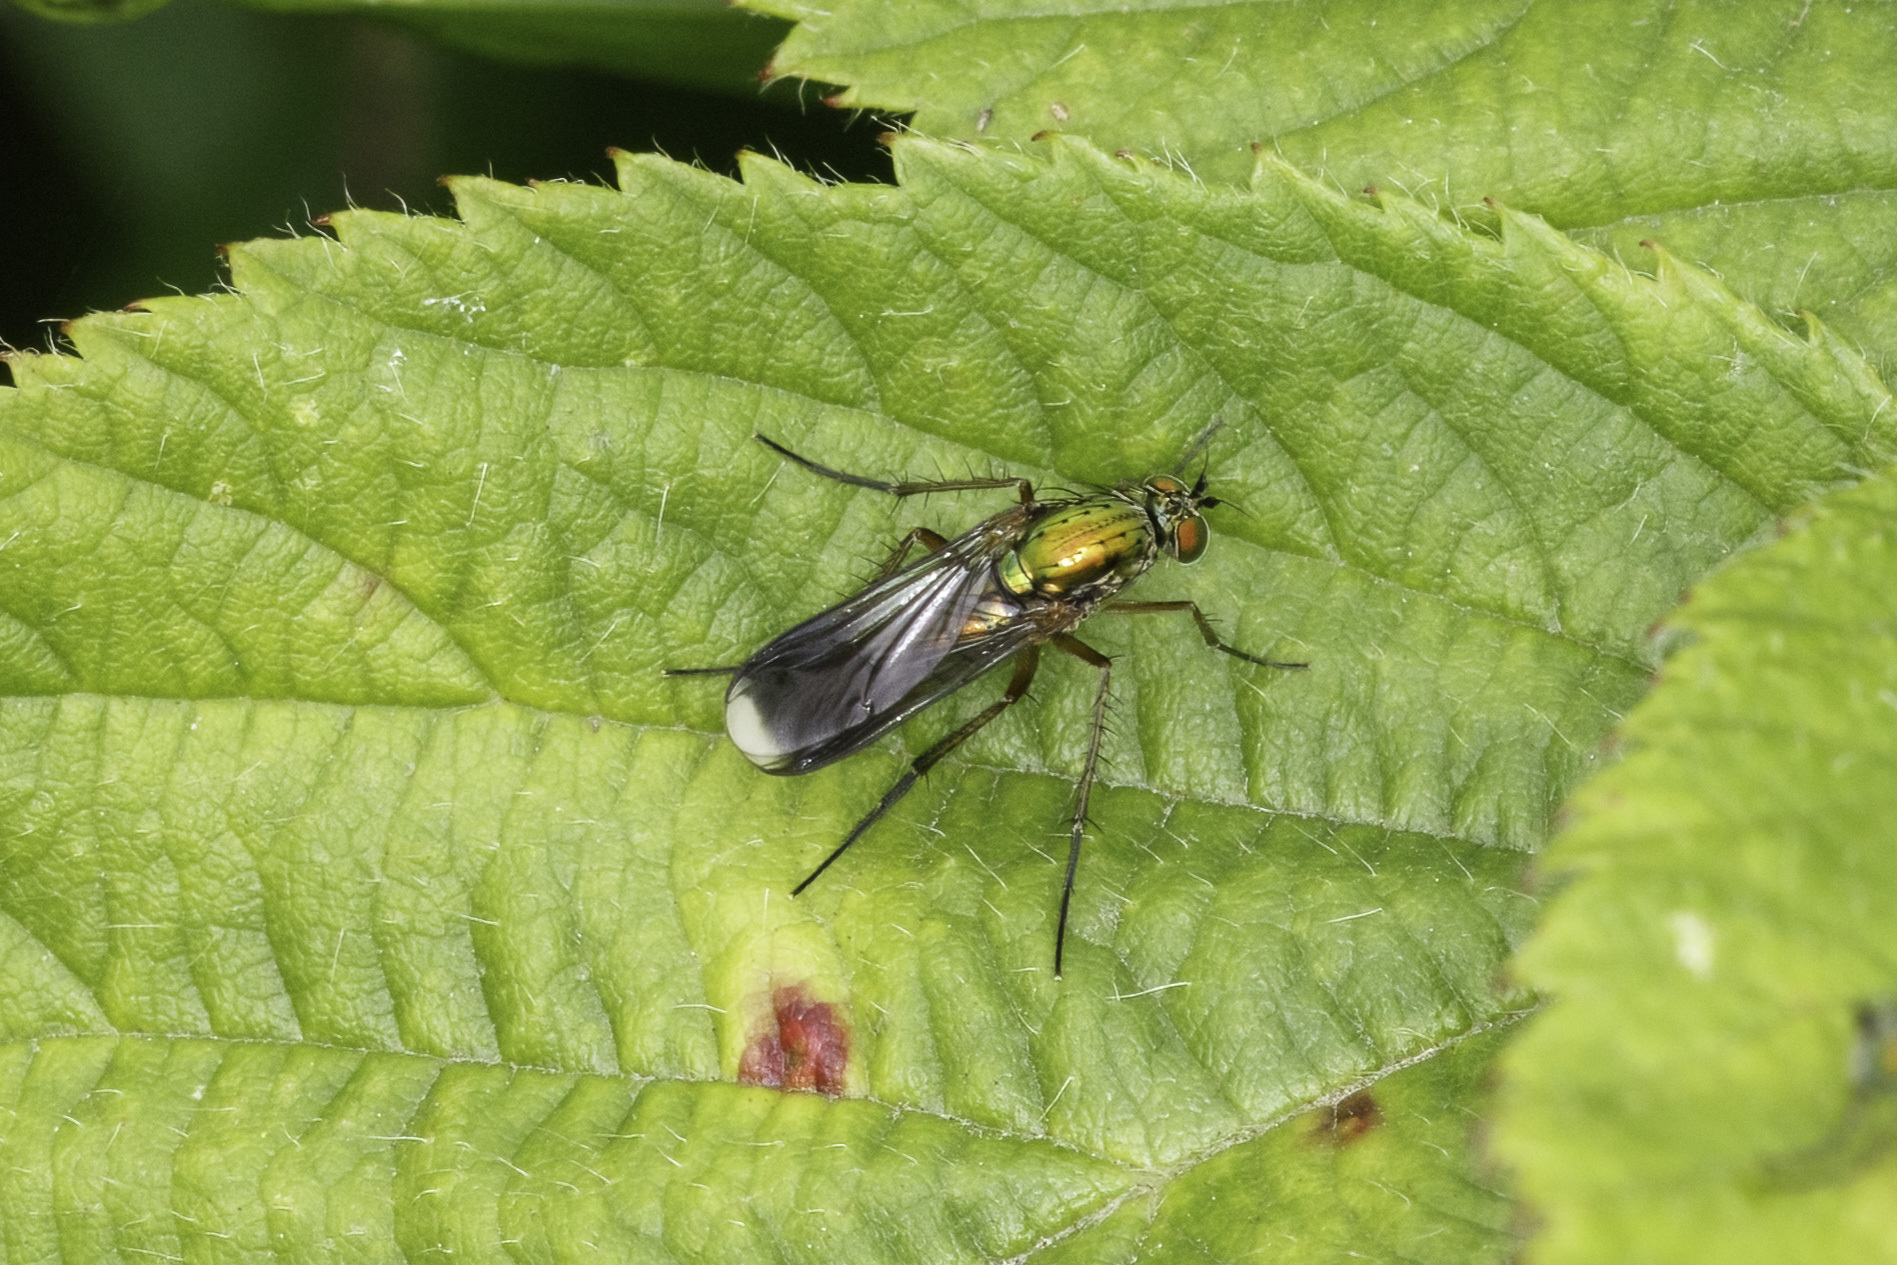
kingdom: Animalia
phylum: Arthropoda
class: Insecta
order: Diptera
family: Dolichopodidae
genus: Poecilobothrus
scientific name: Poecilobothrus nobilitatus
